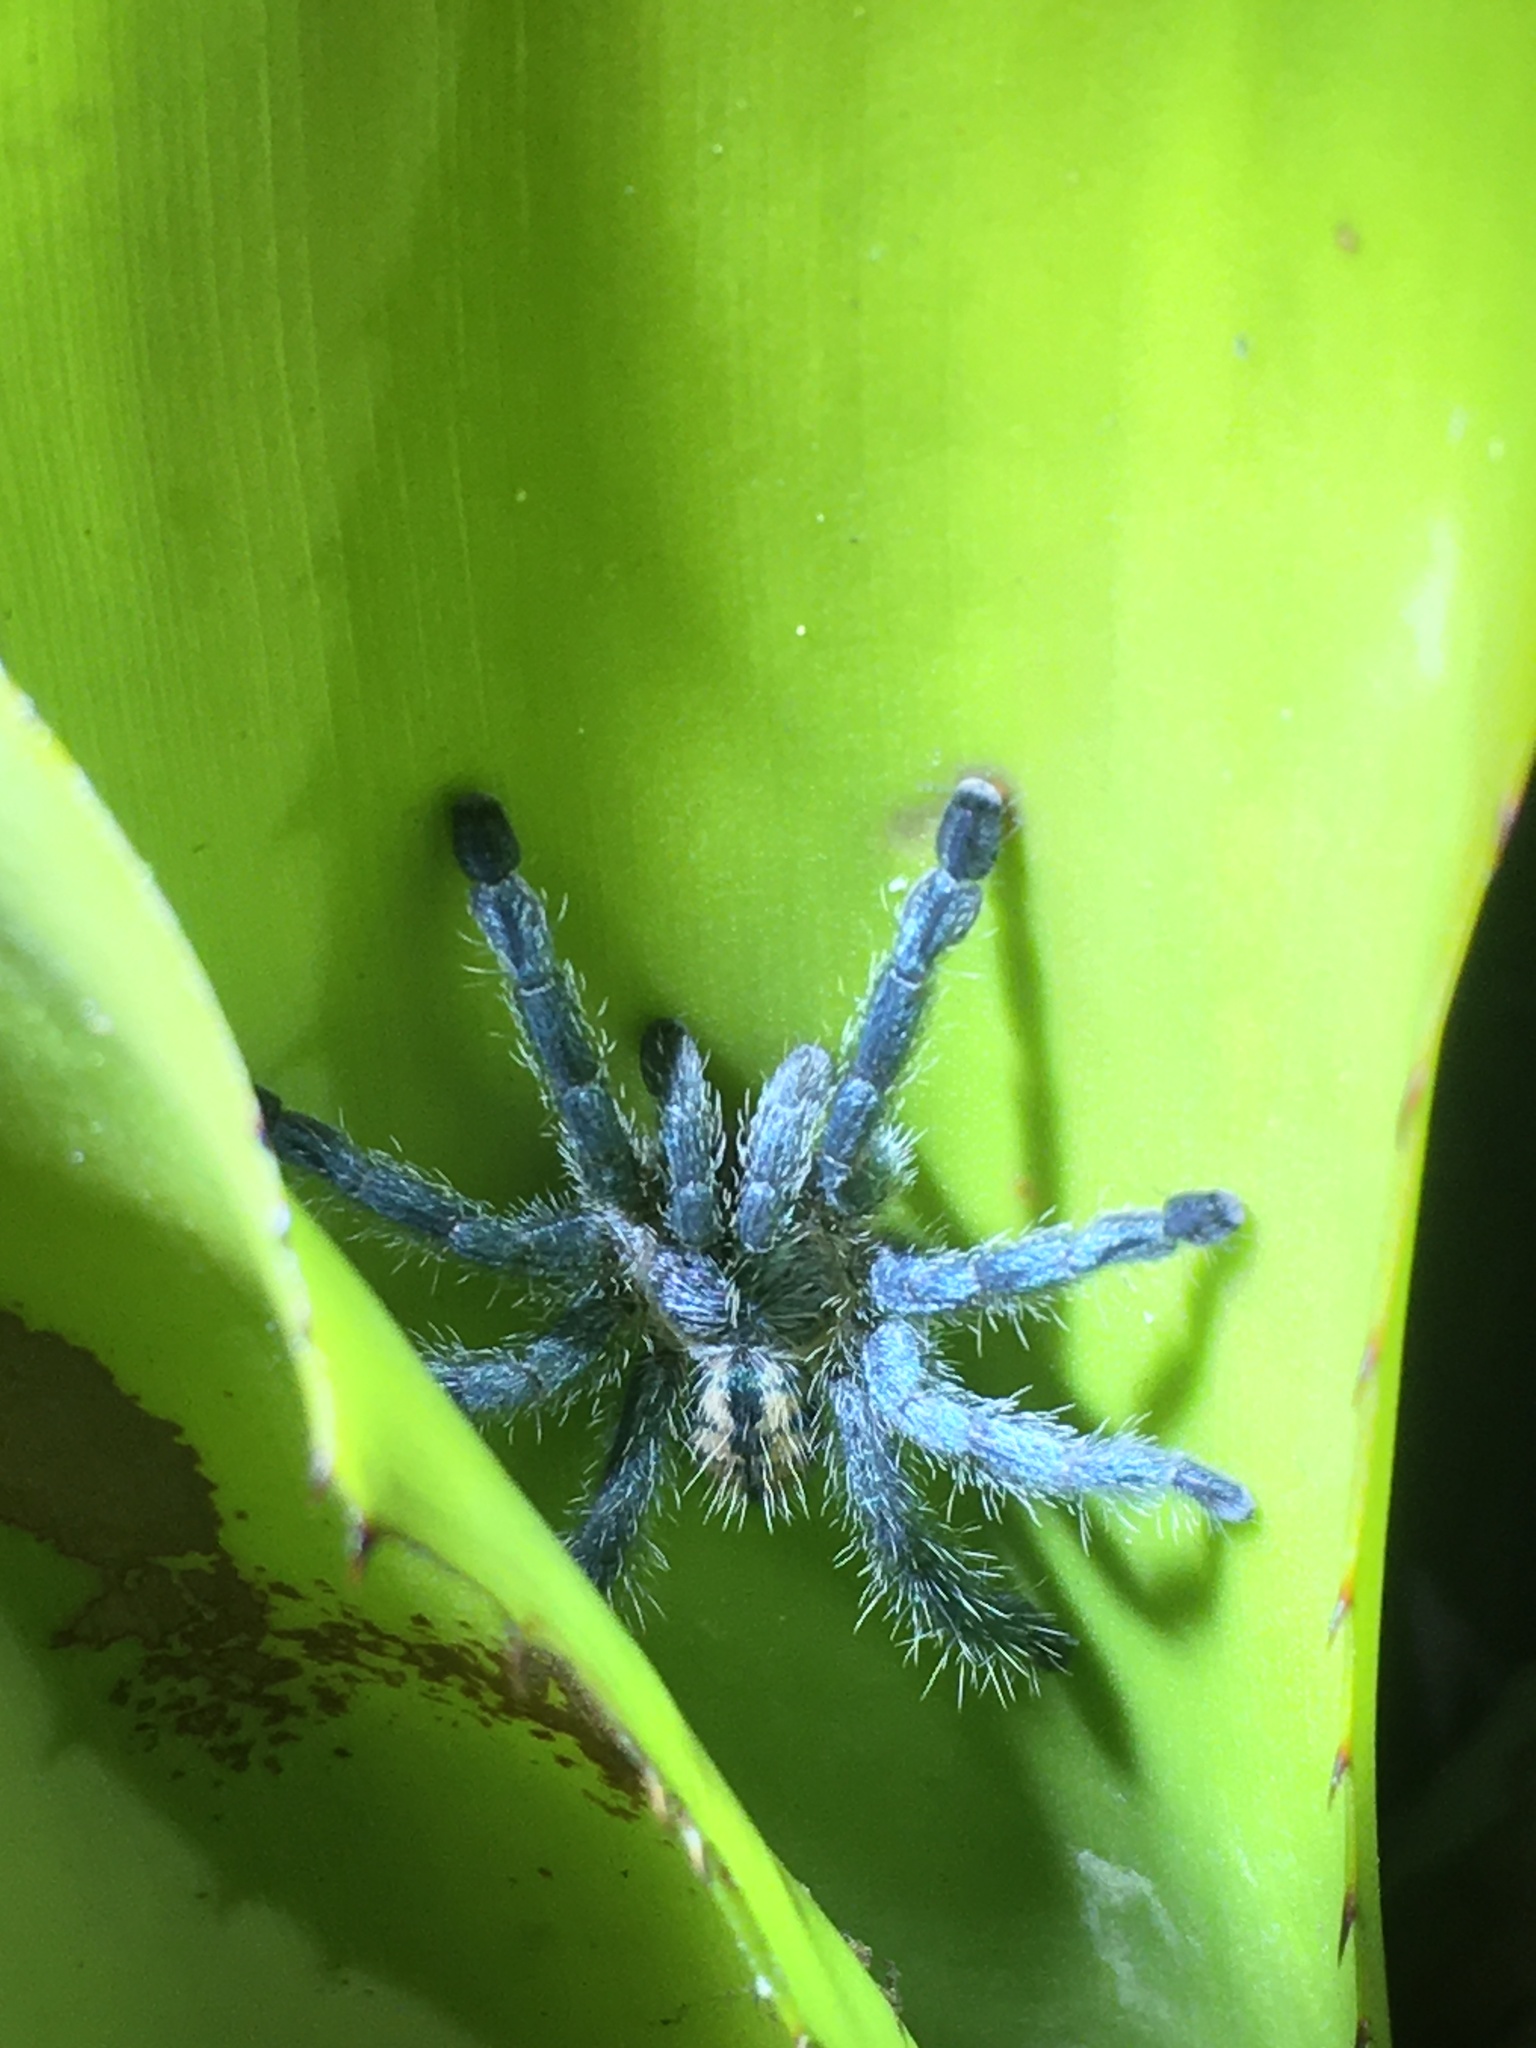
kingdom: Animalia
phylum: Arthropoda
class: Arachnida
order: Araneae
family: Theraphosidae
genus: Pachistopelma
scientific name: Pachistopelma rufonigrum
